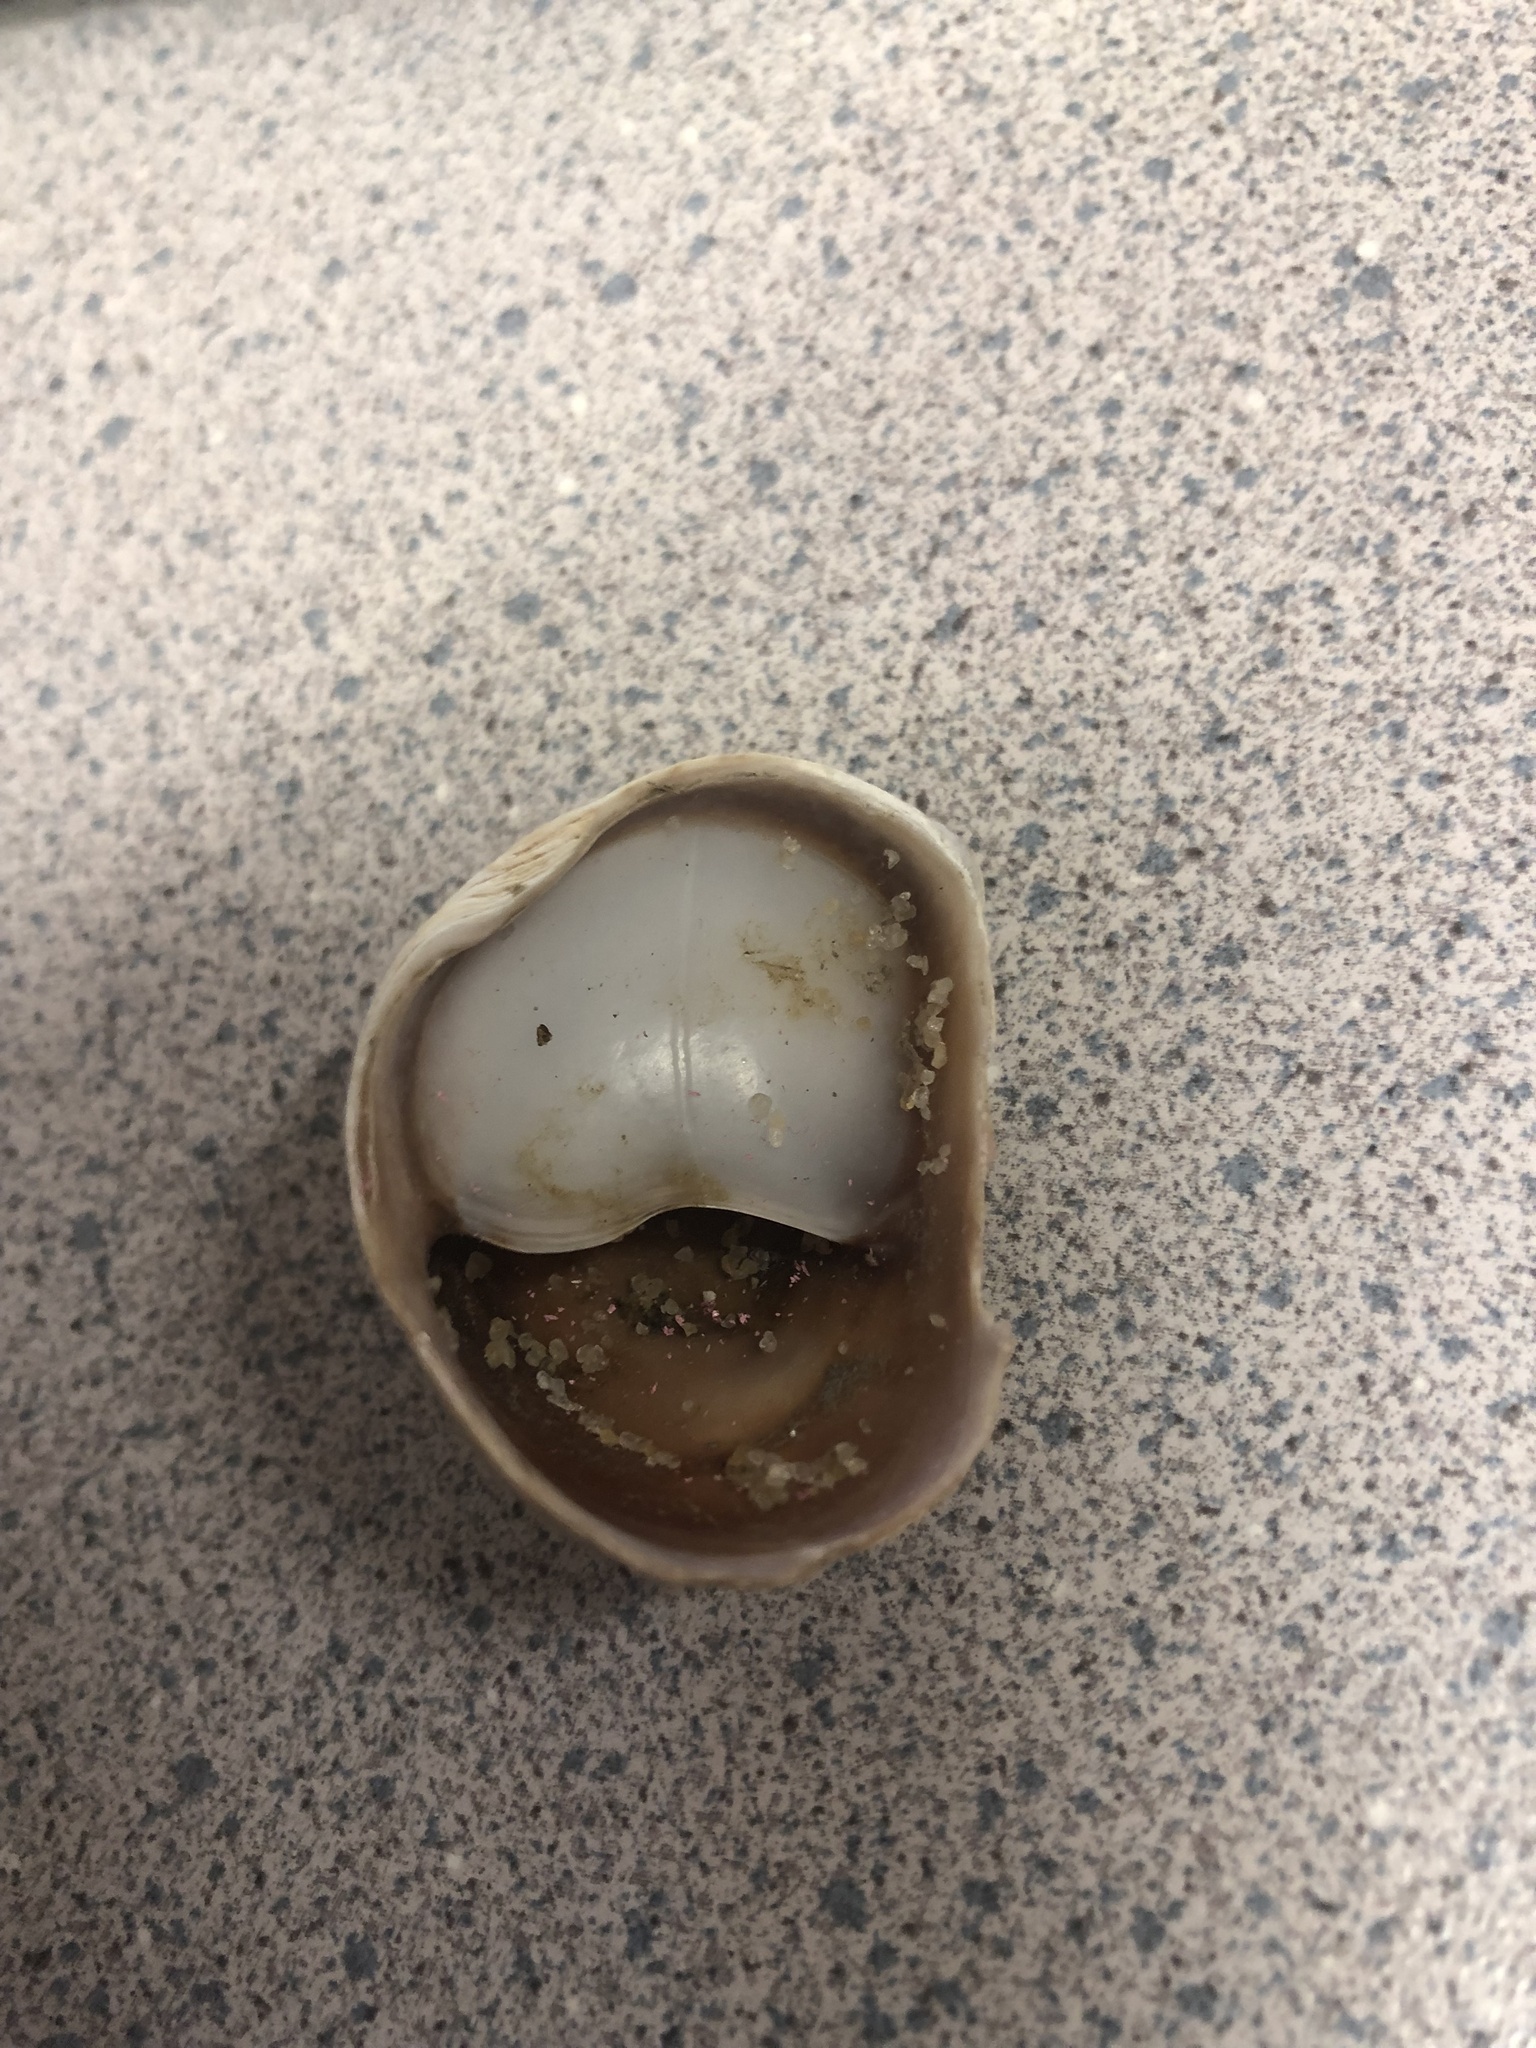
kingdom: Animalia
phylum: Mollusca
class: Gastropoda
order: Littorinimorpha
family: Calyptraeidae
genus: Crepidula
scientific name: Crepidula fornicata
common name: Slipper limpet
